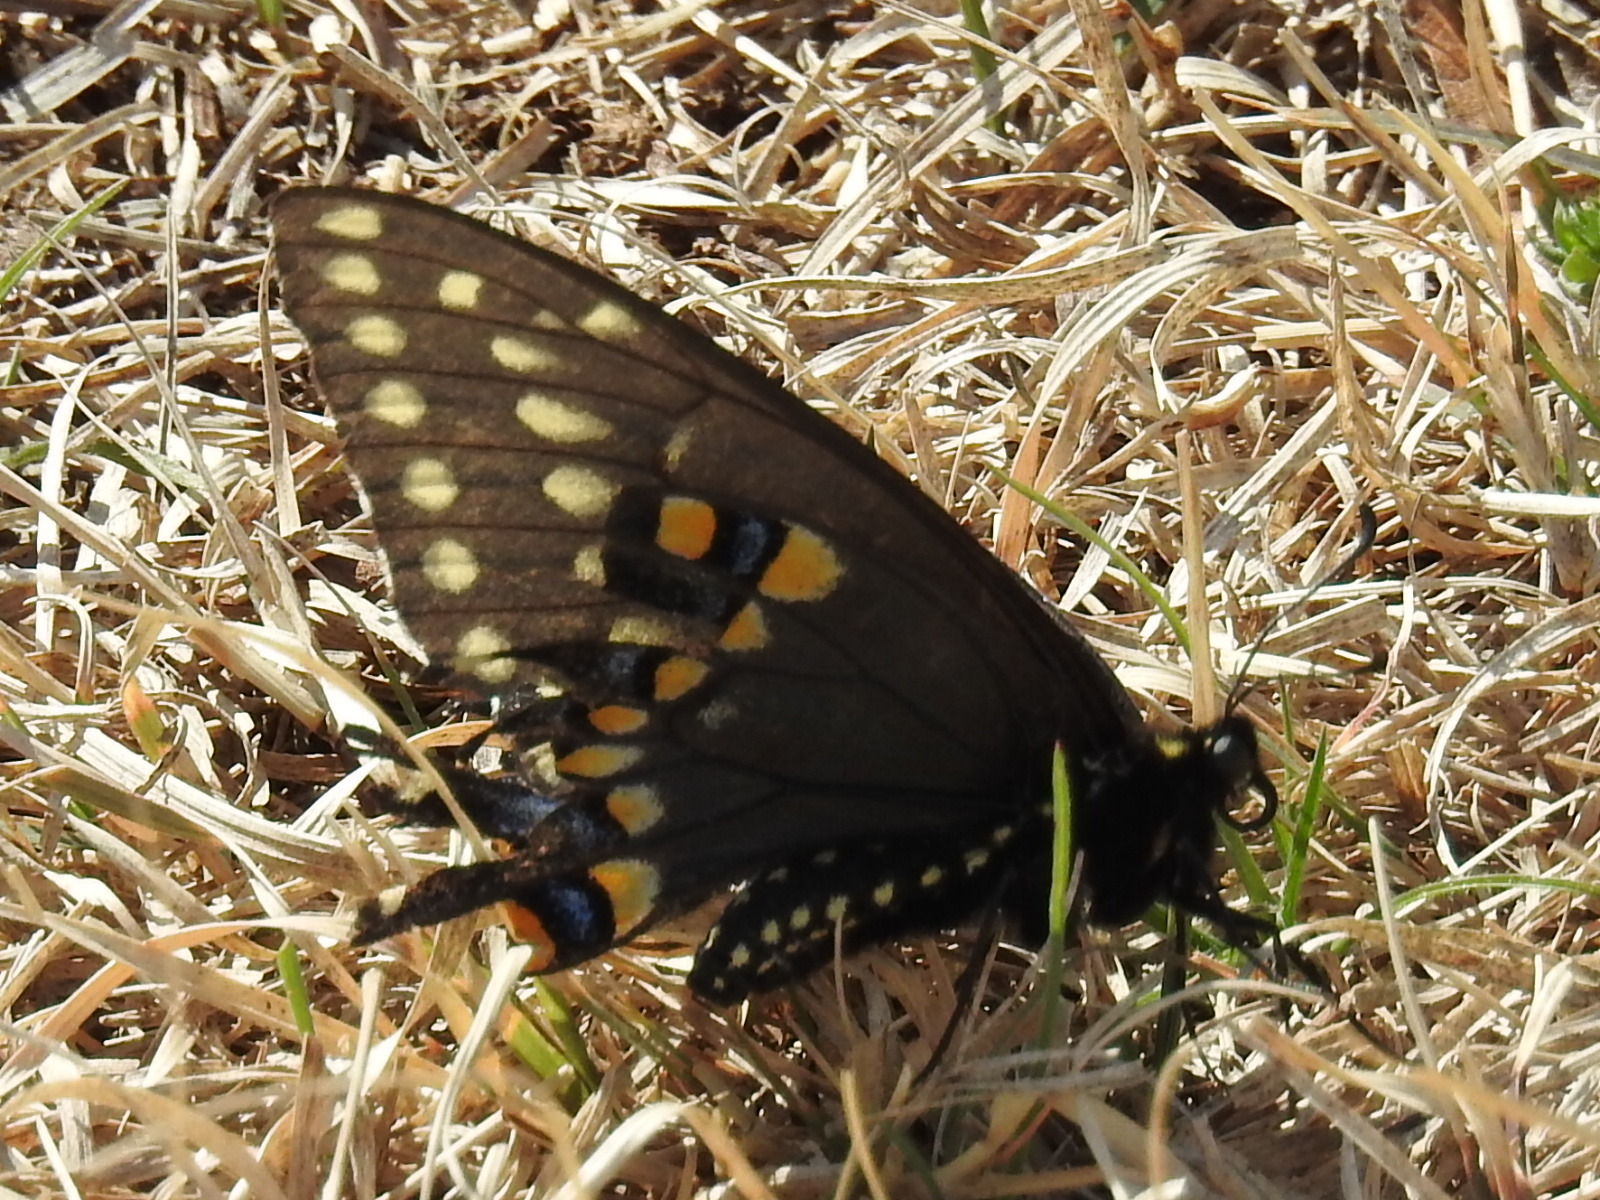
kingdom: Animalia
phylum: Arthropoda
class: Insecta
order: Lepidoptera
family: Papilionidae
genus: Papilio
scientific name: Papilio polyxenes
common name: Black swallowtail
